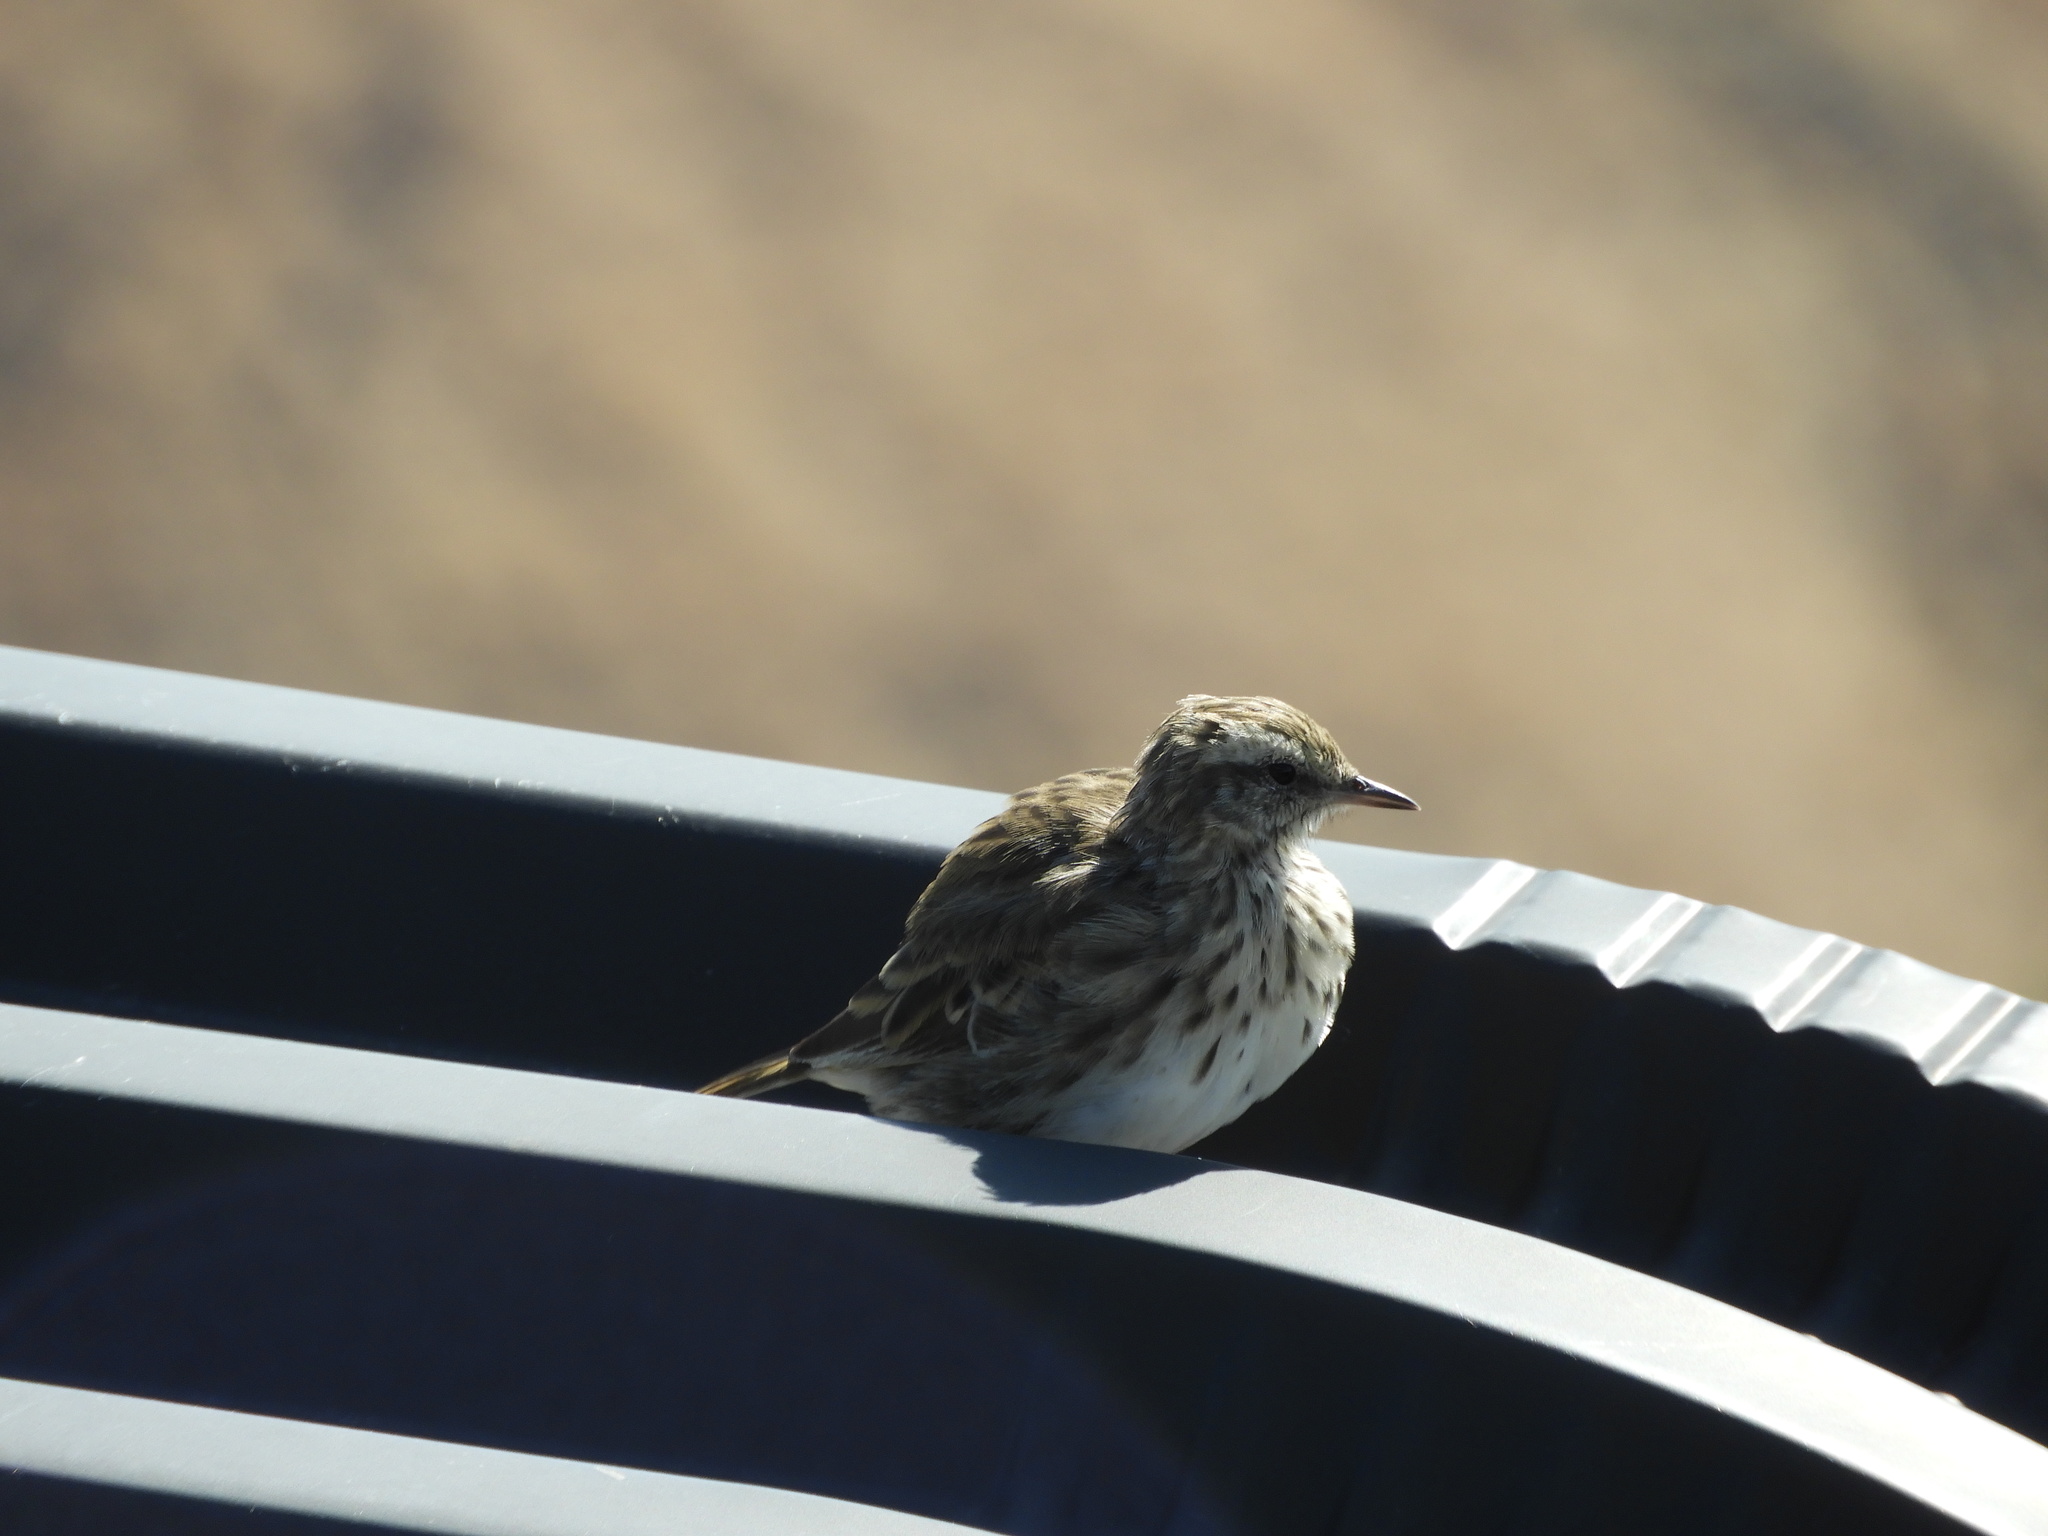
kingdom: Animalia
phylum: Chordata
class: Aves
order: Passeriformes
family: Motacillidae
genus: Anthus
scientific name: Anthus novaeseelandiae
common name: New zealand pipit
